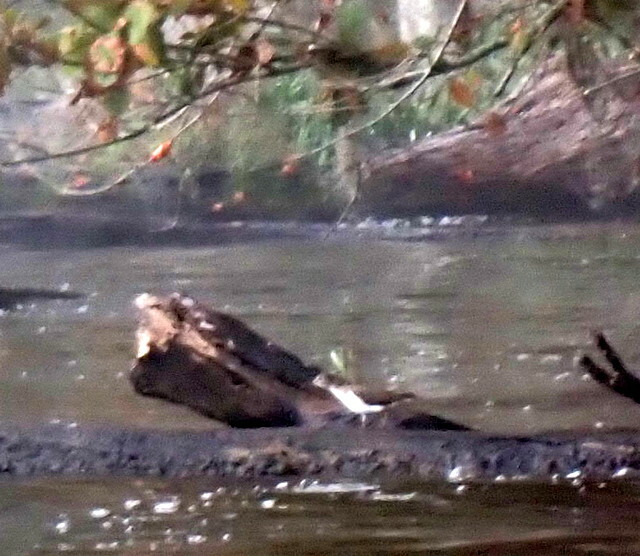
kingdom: Animalia
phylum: Chordata
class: Aves
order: Charadriiformes
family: Scolopacidae
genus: Actitis
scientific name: Actitis macularius
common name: Spotted sandpiper
